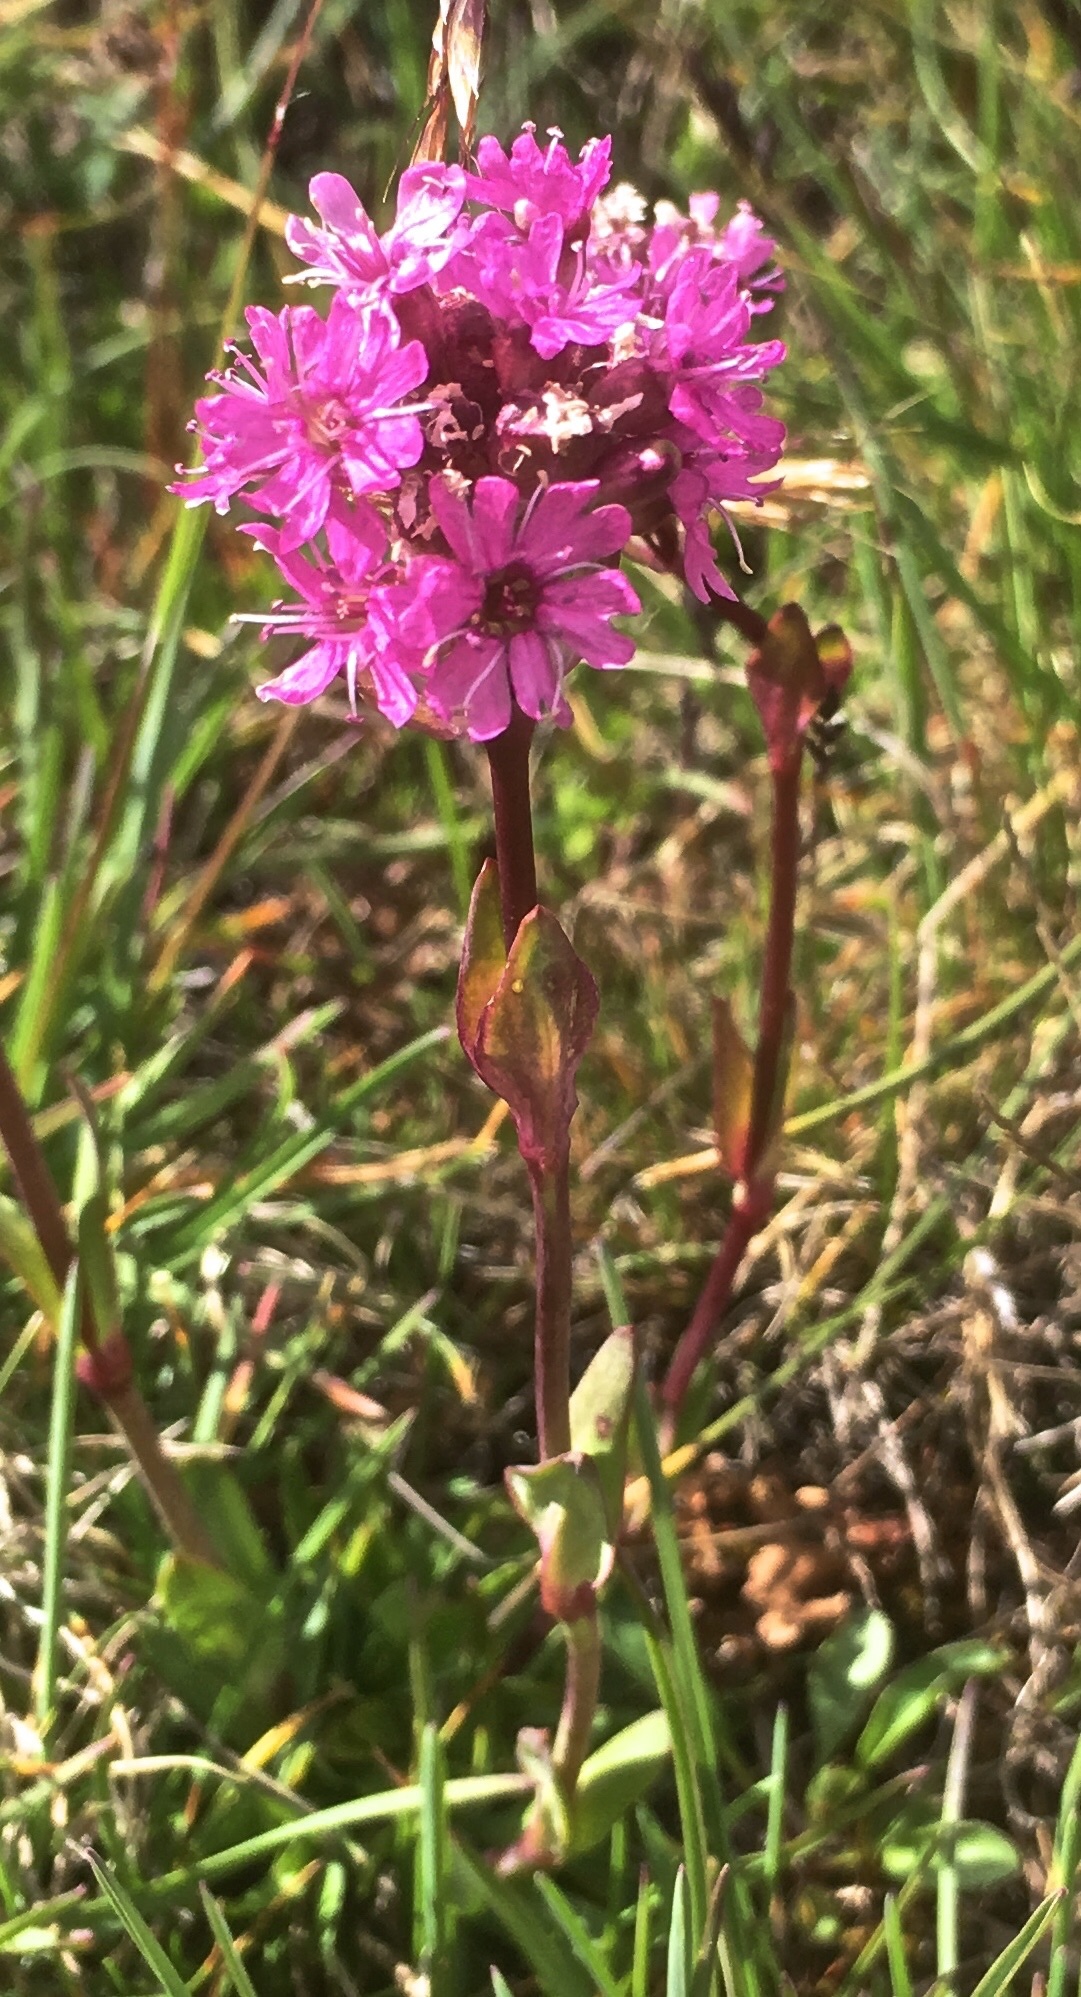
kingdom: Plantae
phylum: Tracheophyta
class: Magnoliopsida
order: Caryophyllales
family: Caryophyllaceae
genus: Viscaria
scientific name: Viscaria alpina
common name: Alpine campion
